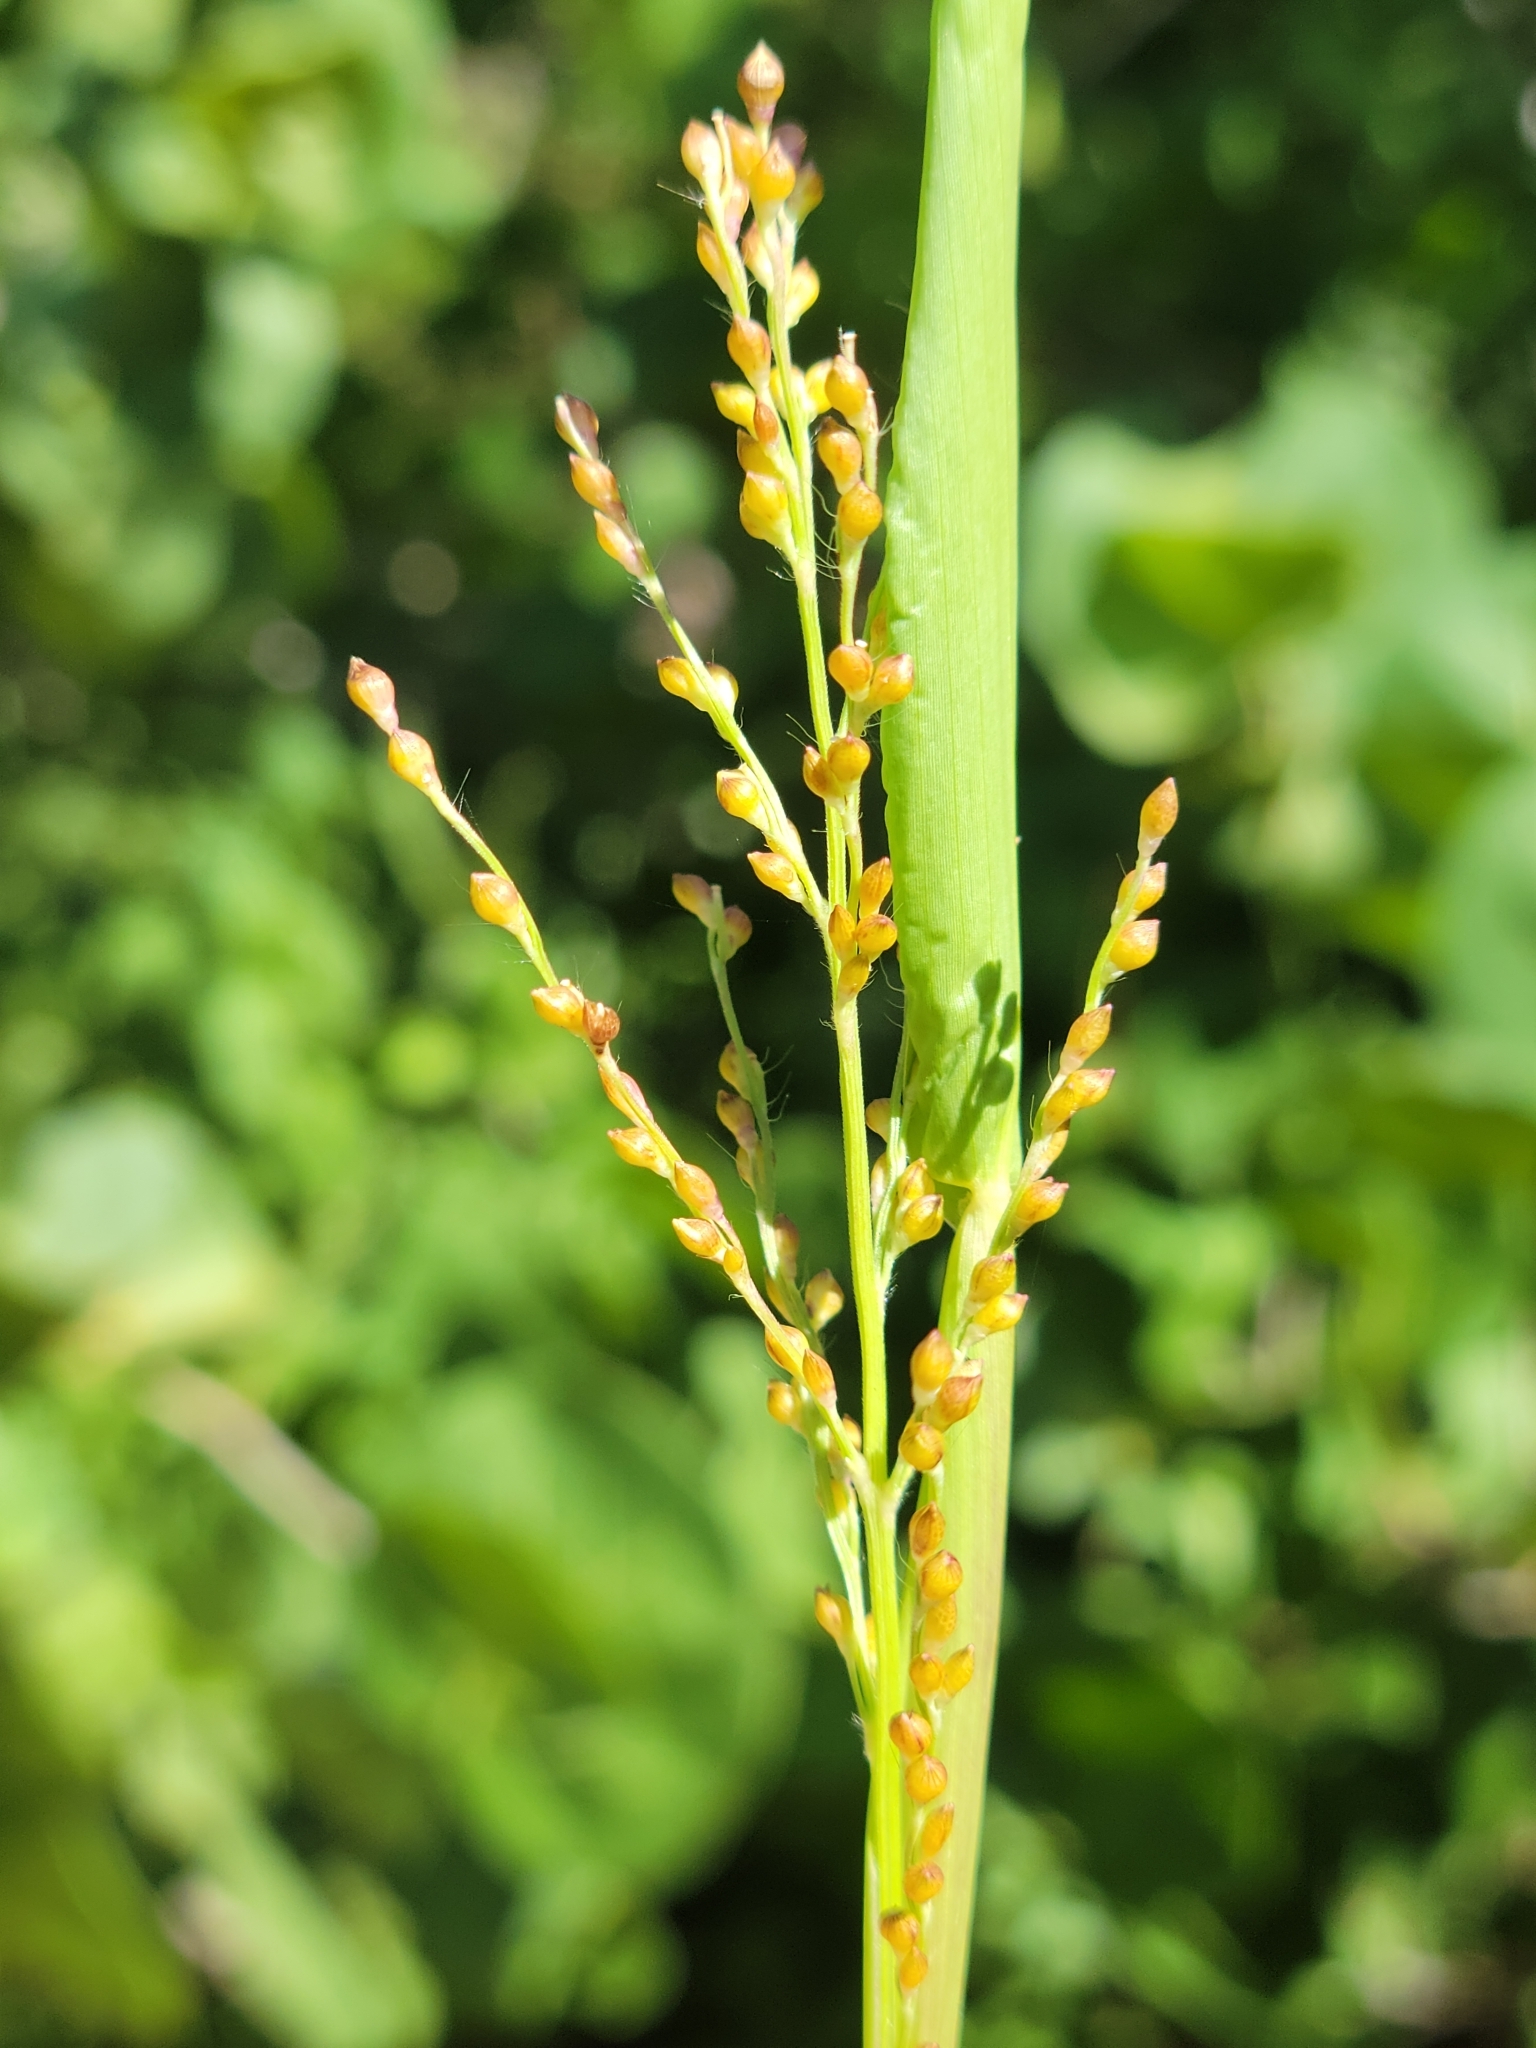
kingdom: Plantae
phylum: Tracheophyta
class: Liliopsida
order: Poales
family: Poaceae
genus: Urochloa
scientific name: Urochloa fusca
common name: Browntop signal grass
